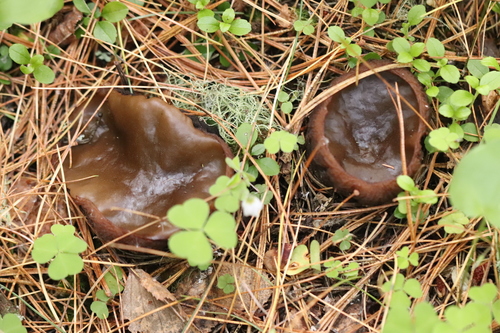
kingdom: Fungi
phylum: Ascomycota
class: Pezizomycetes
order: Pezizales
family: Sarcosomataceae
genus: Sarcosoma
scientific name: Sarcosoma globosum
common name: Charred-pancake cup
